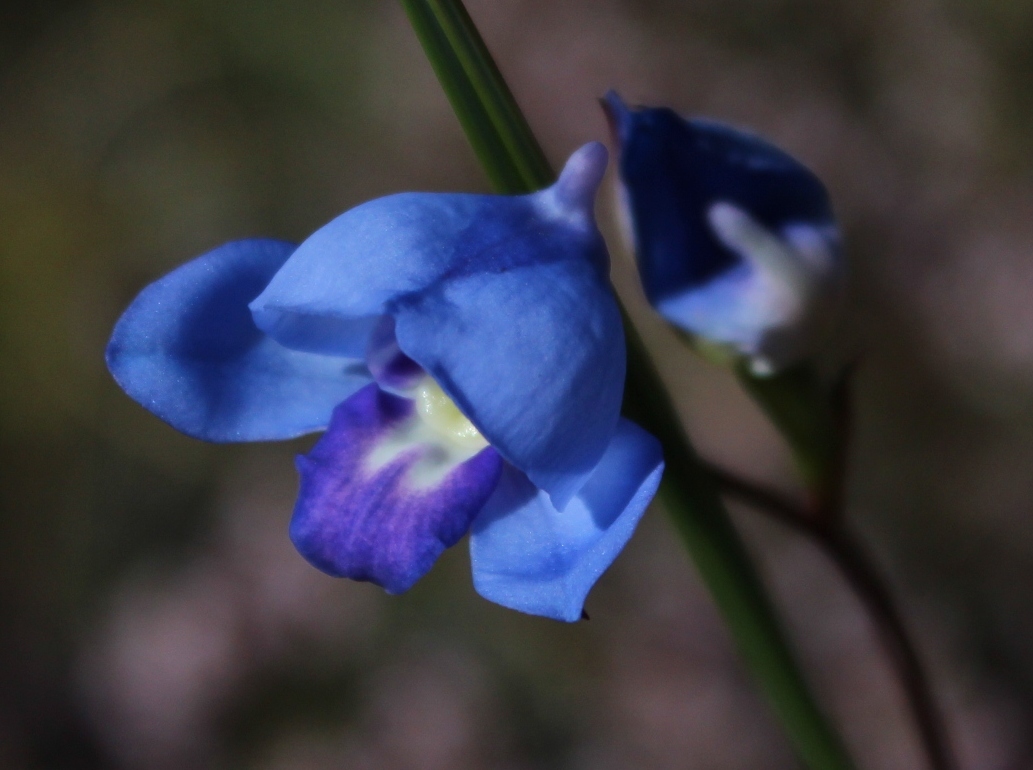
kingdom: Plantae
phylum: Tracheophyta
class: Liliopsida
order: Asparagales
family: Orchidaceae
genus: Disa
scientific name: Disa graminifolia
